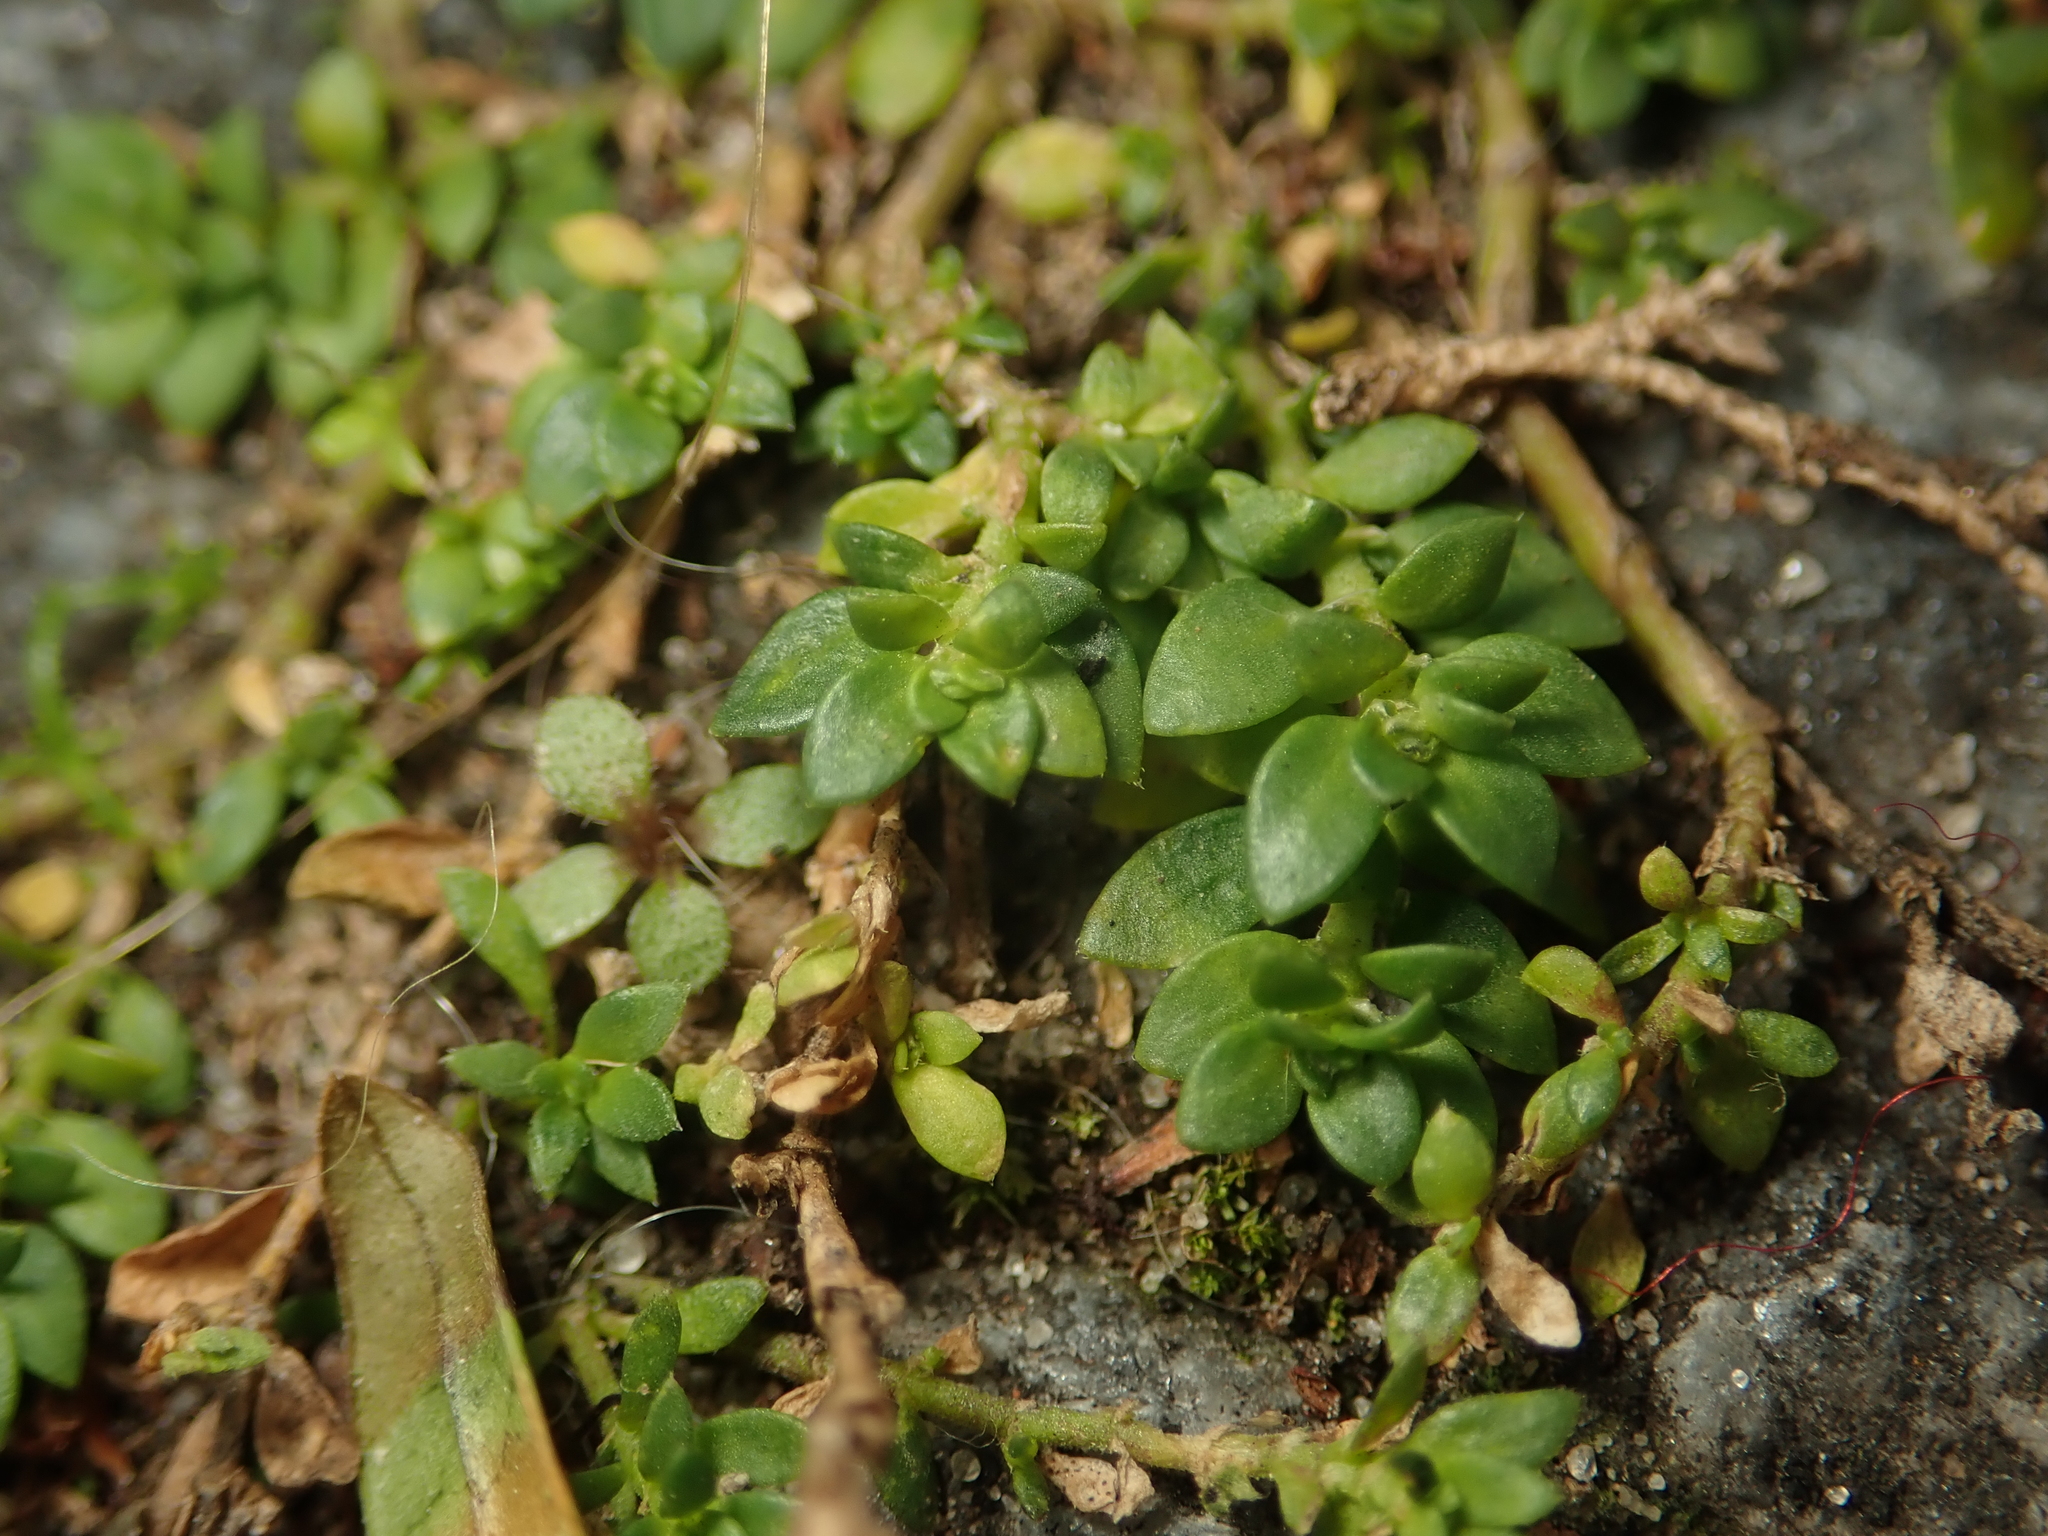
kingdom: Plantae
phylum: Tracheophyta
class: Magnoliopsida
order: Caryophyllales
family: Caryophyllaceae
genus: Herniaria
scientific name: Herniaria glabra
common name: Smooth rupturewort
